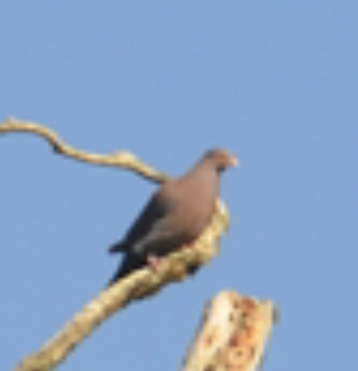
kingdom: Animalia
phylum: Chordata
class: Aves
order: Columbiformes
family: Columbidae
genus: Patagioenas
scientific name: Patagioenas flavirostris
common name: Red-billed pigeon
